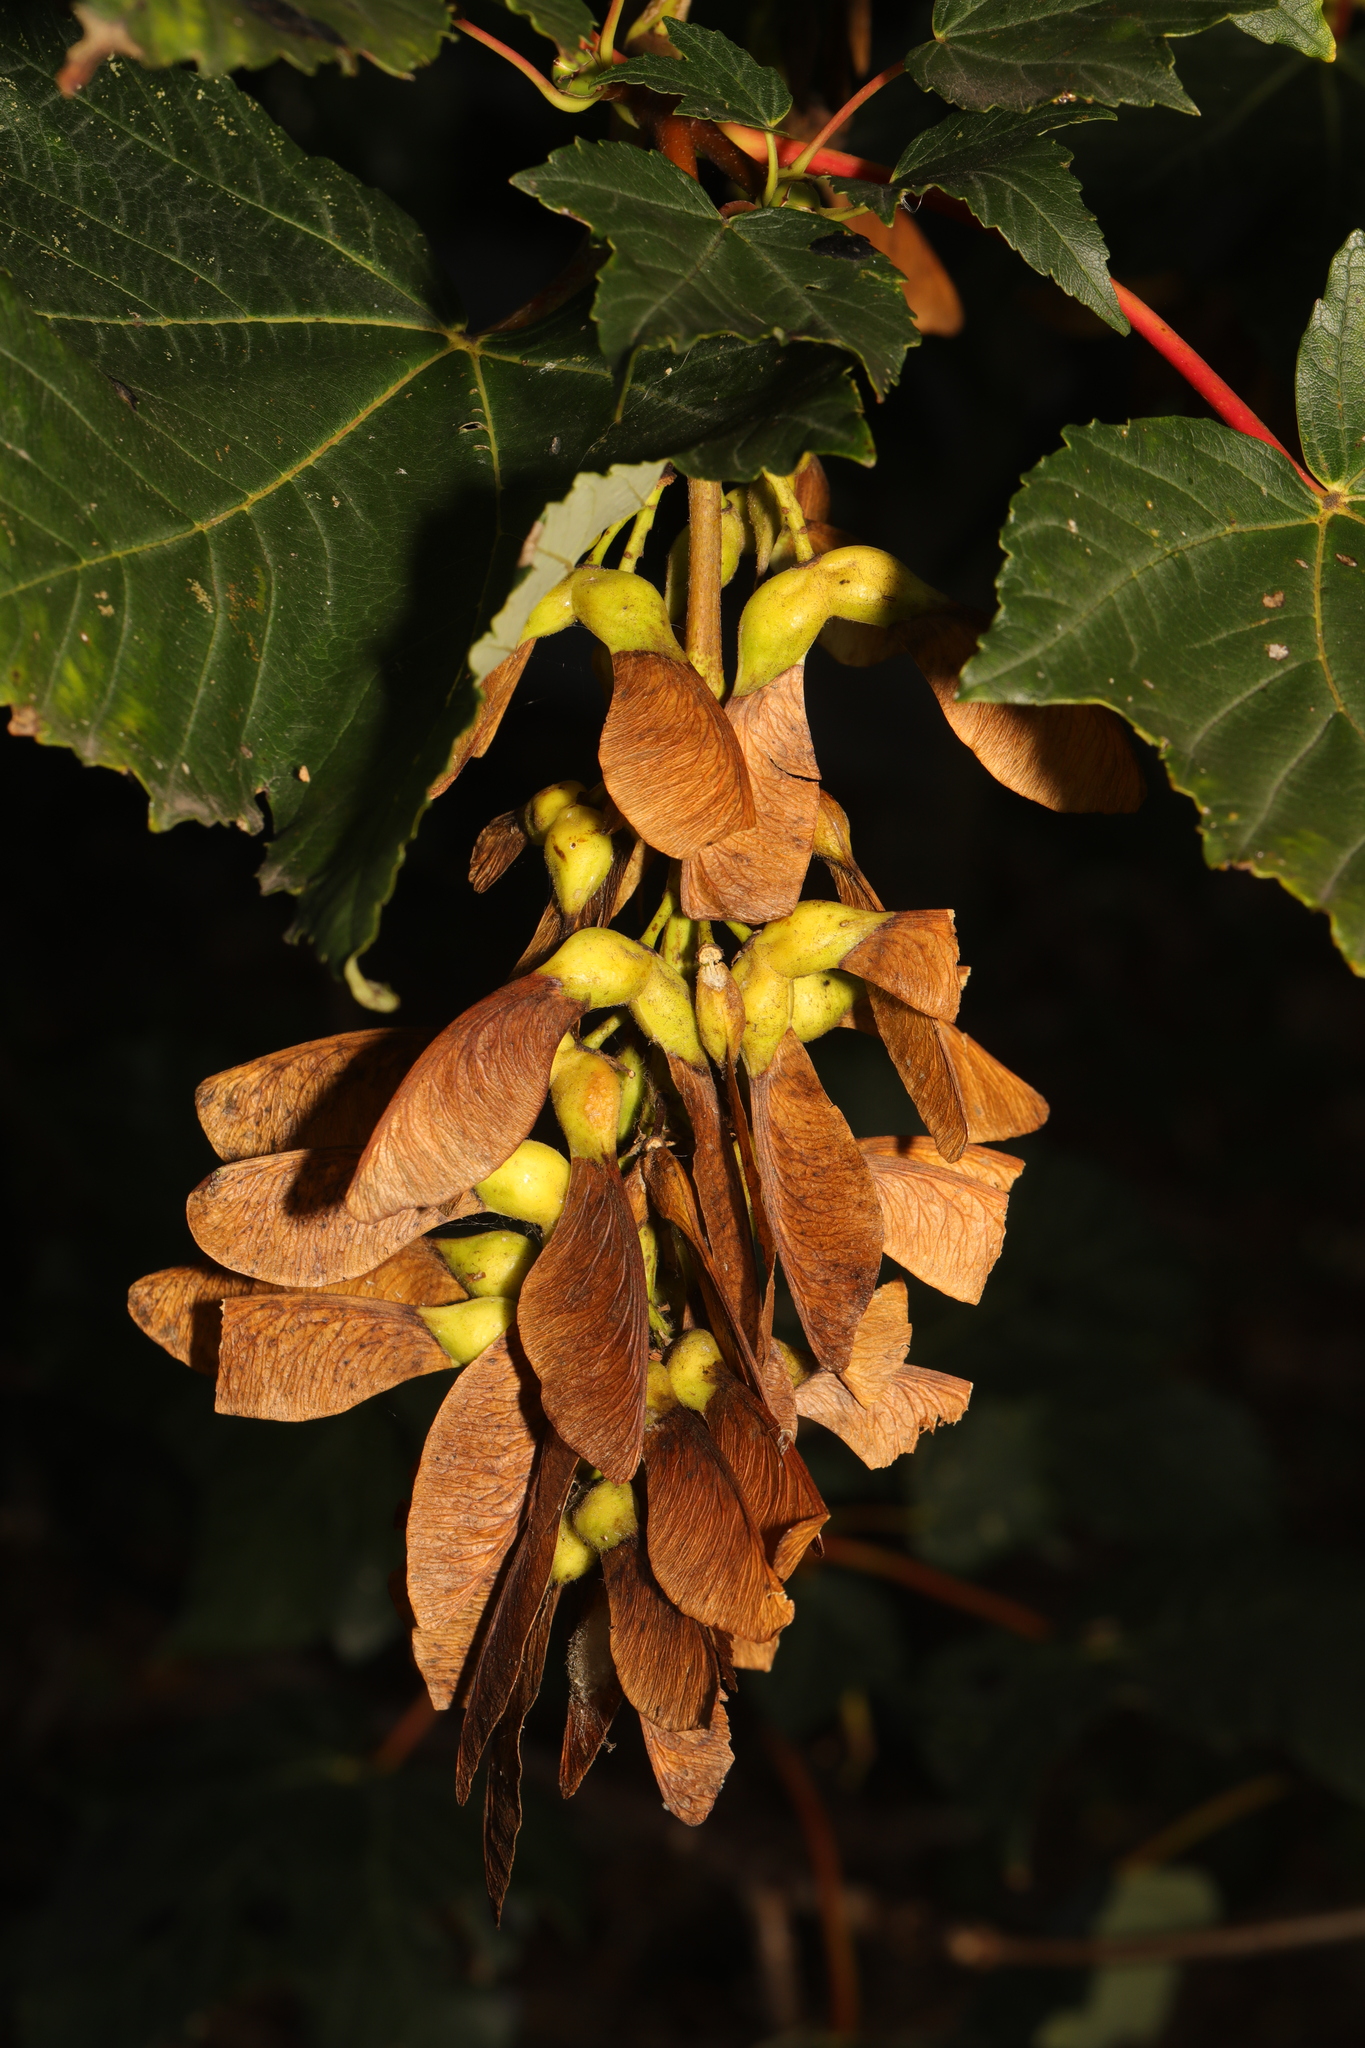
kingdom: Plantae
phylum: Tracheophyta
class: Magnoliopsida
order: Sapindales
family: Sapindaceae
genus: Acer
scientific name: Acer pseudoplatanus
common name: Sycamore
